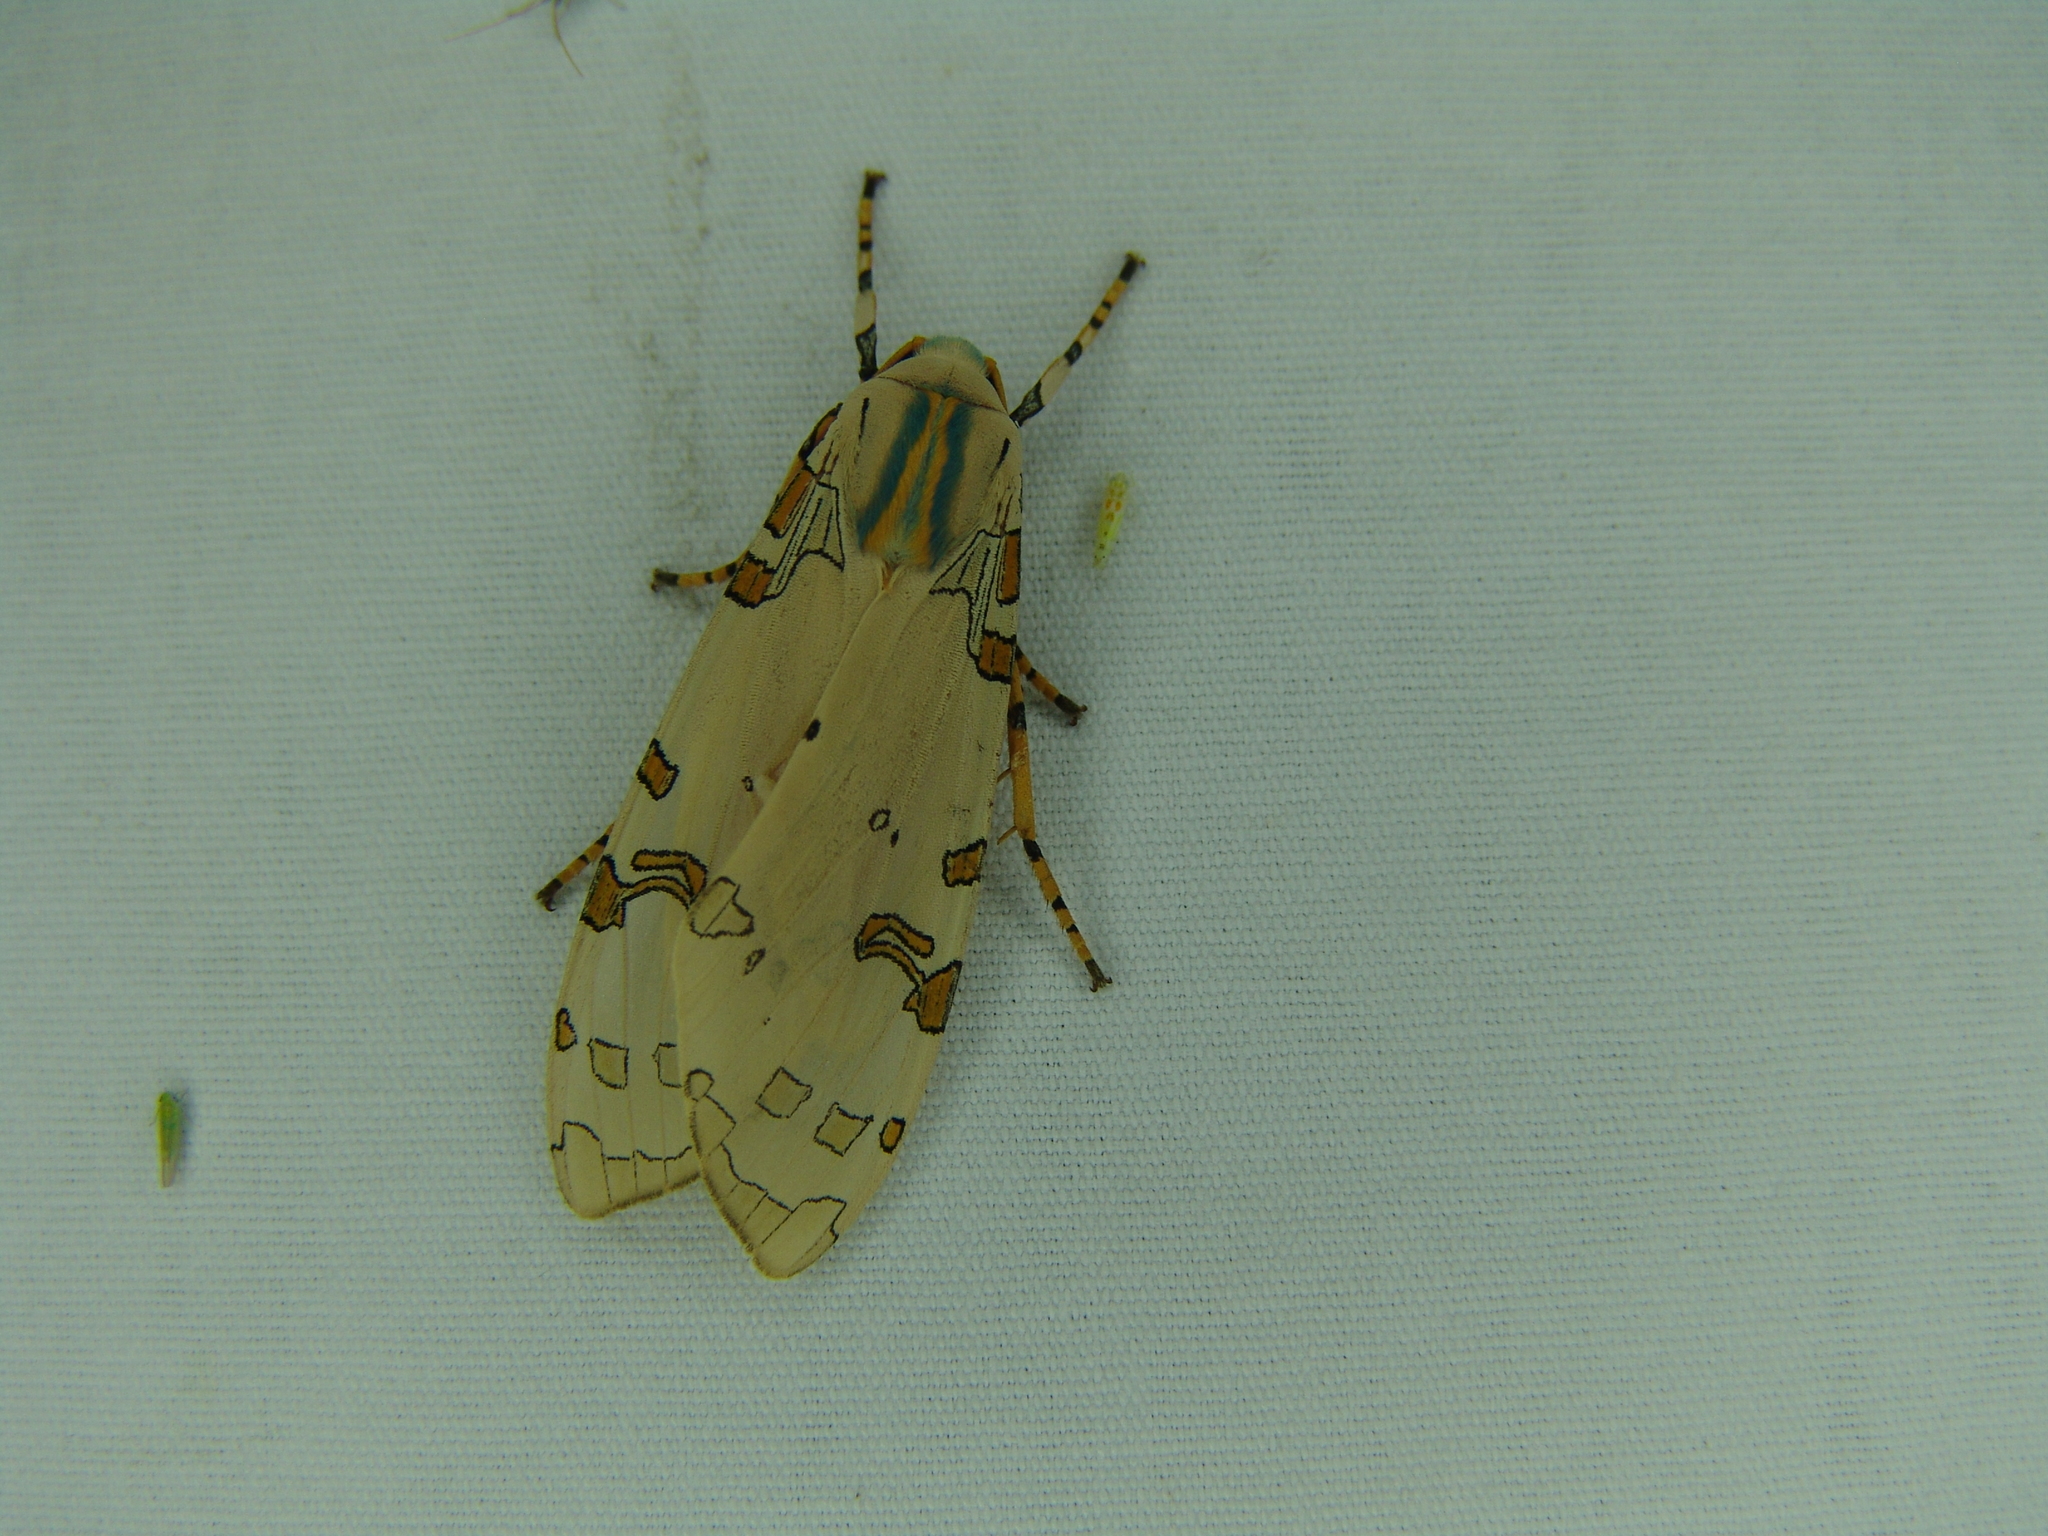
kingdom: Animalia
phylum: Arthropoda
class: Insecta
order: Lepidoptera
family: Erebidae
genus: Halysidota
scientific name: Halysidota davisii
